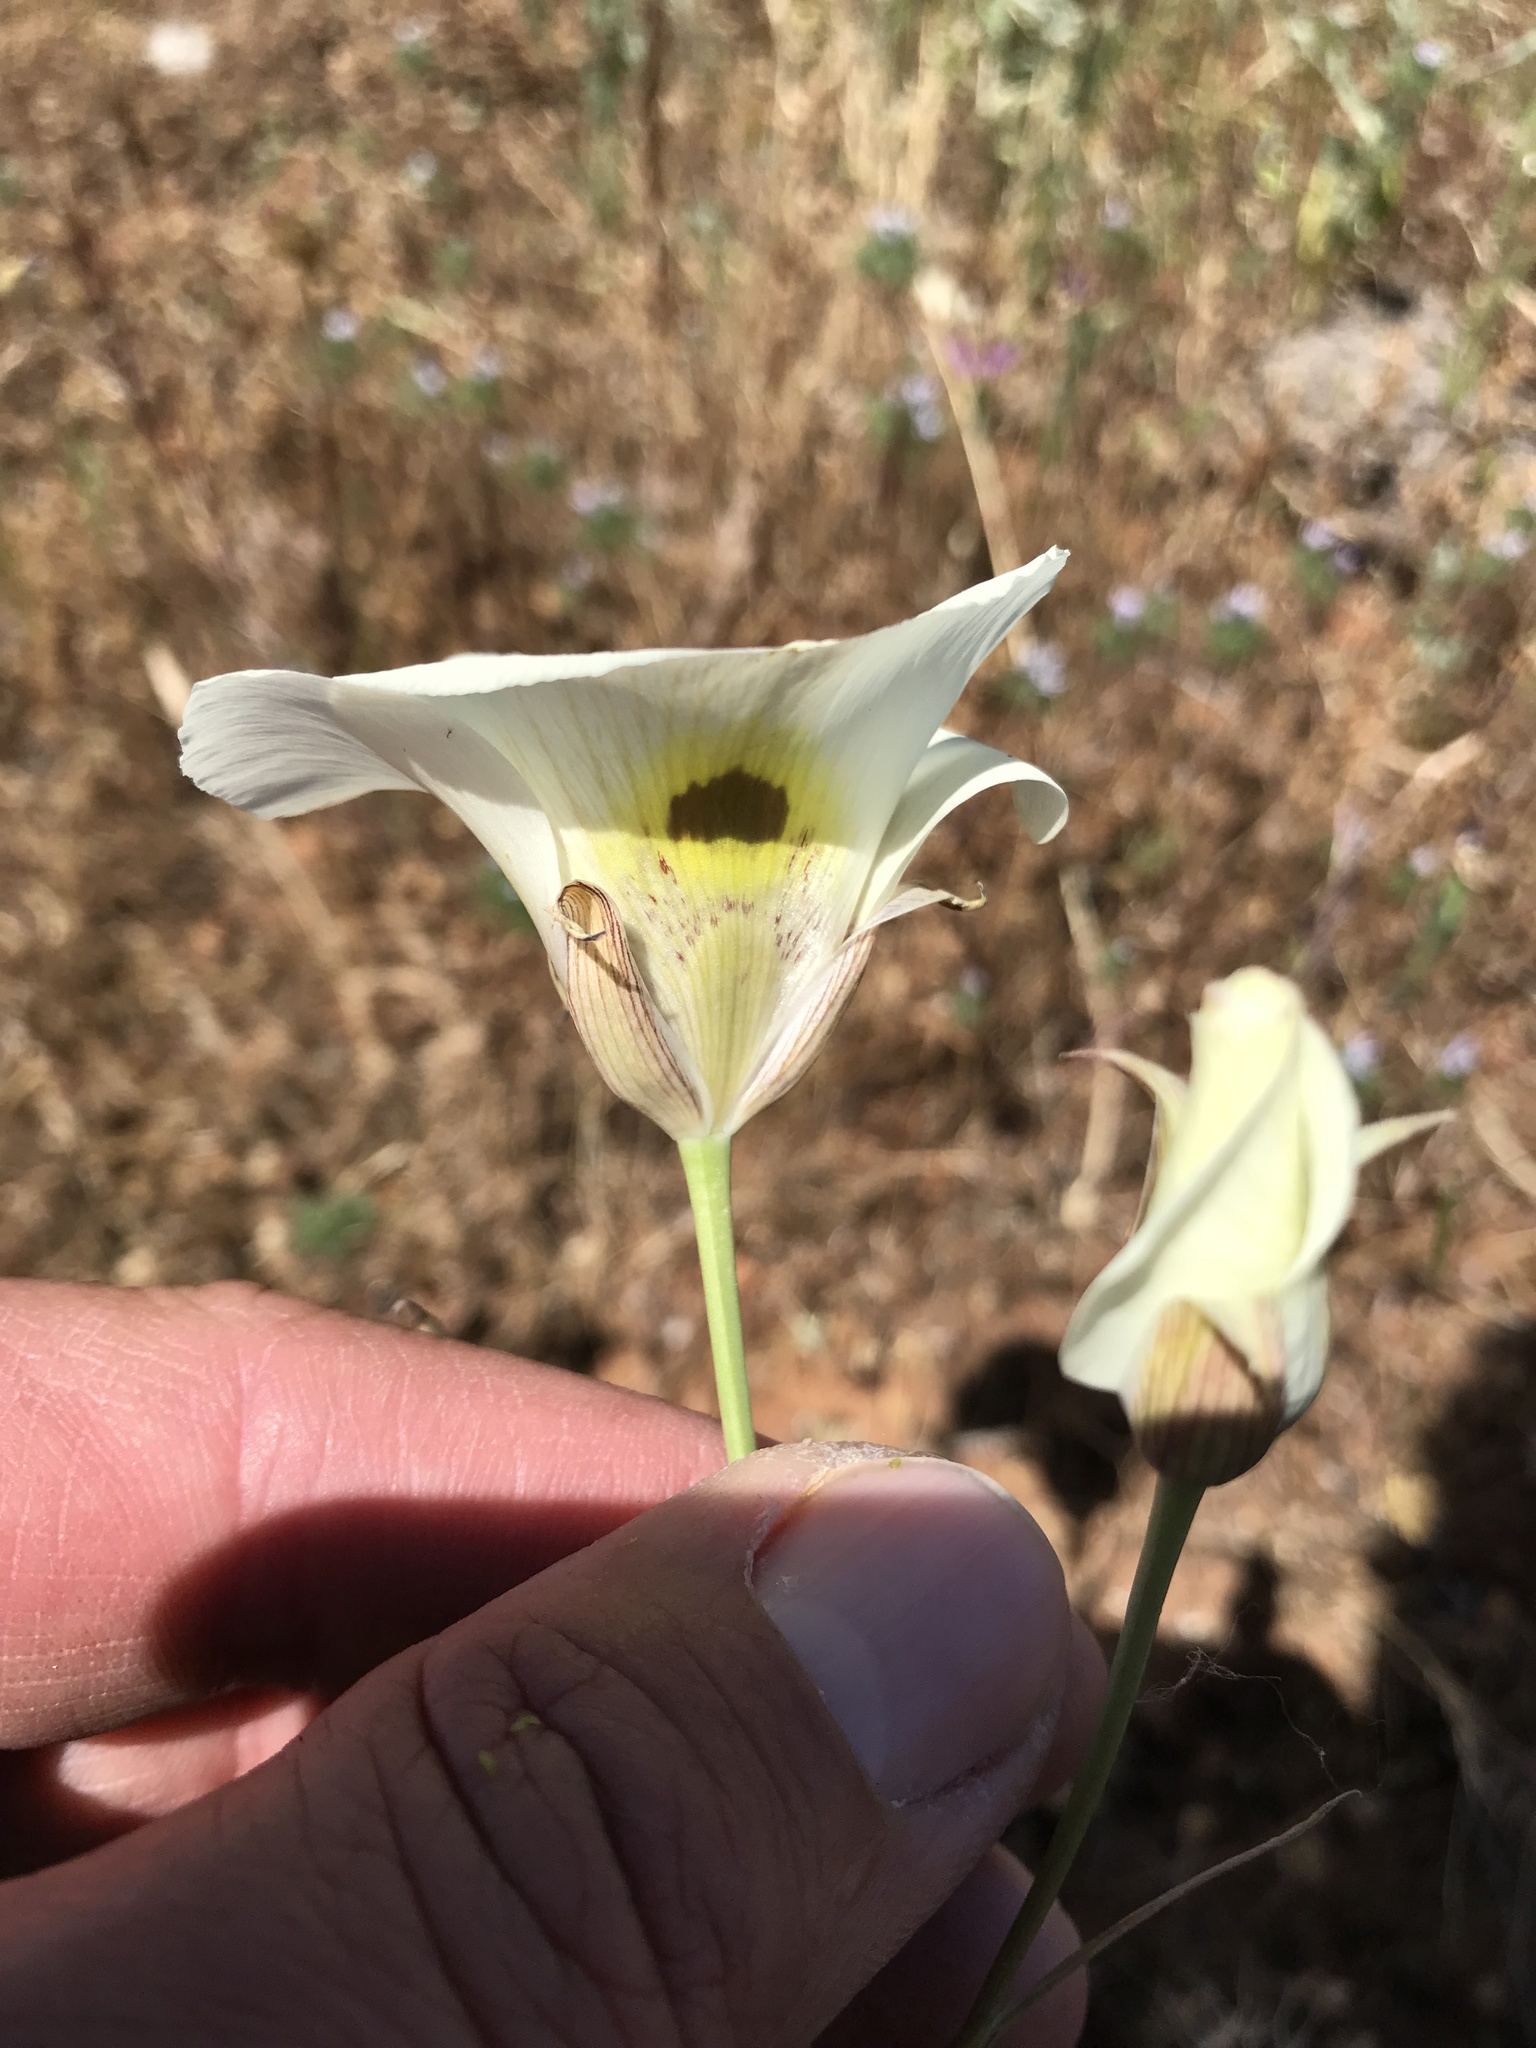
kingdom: Plantae
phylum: Tracheophyta
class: Liliopsida
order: Liliales
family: Liliaceae
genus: Calochortus
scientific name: Calochortus superbus
